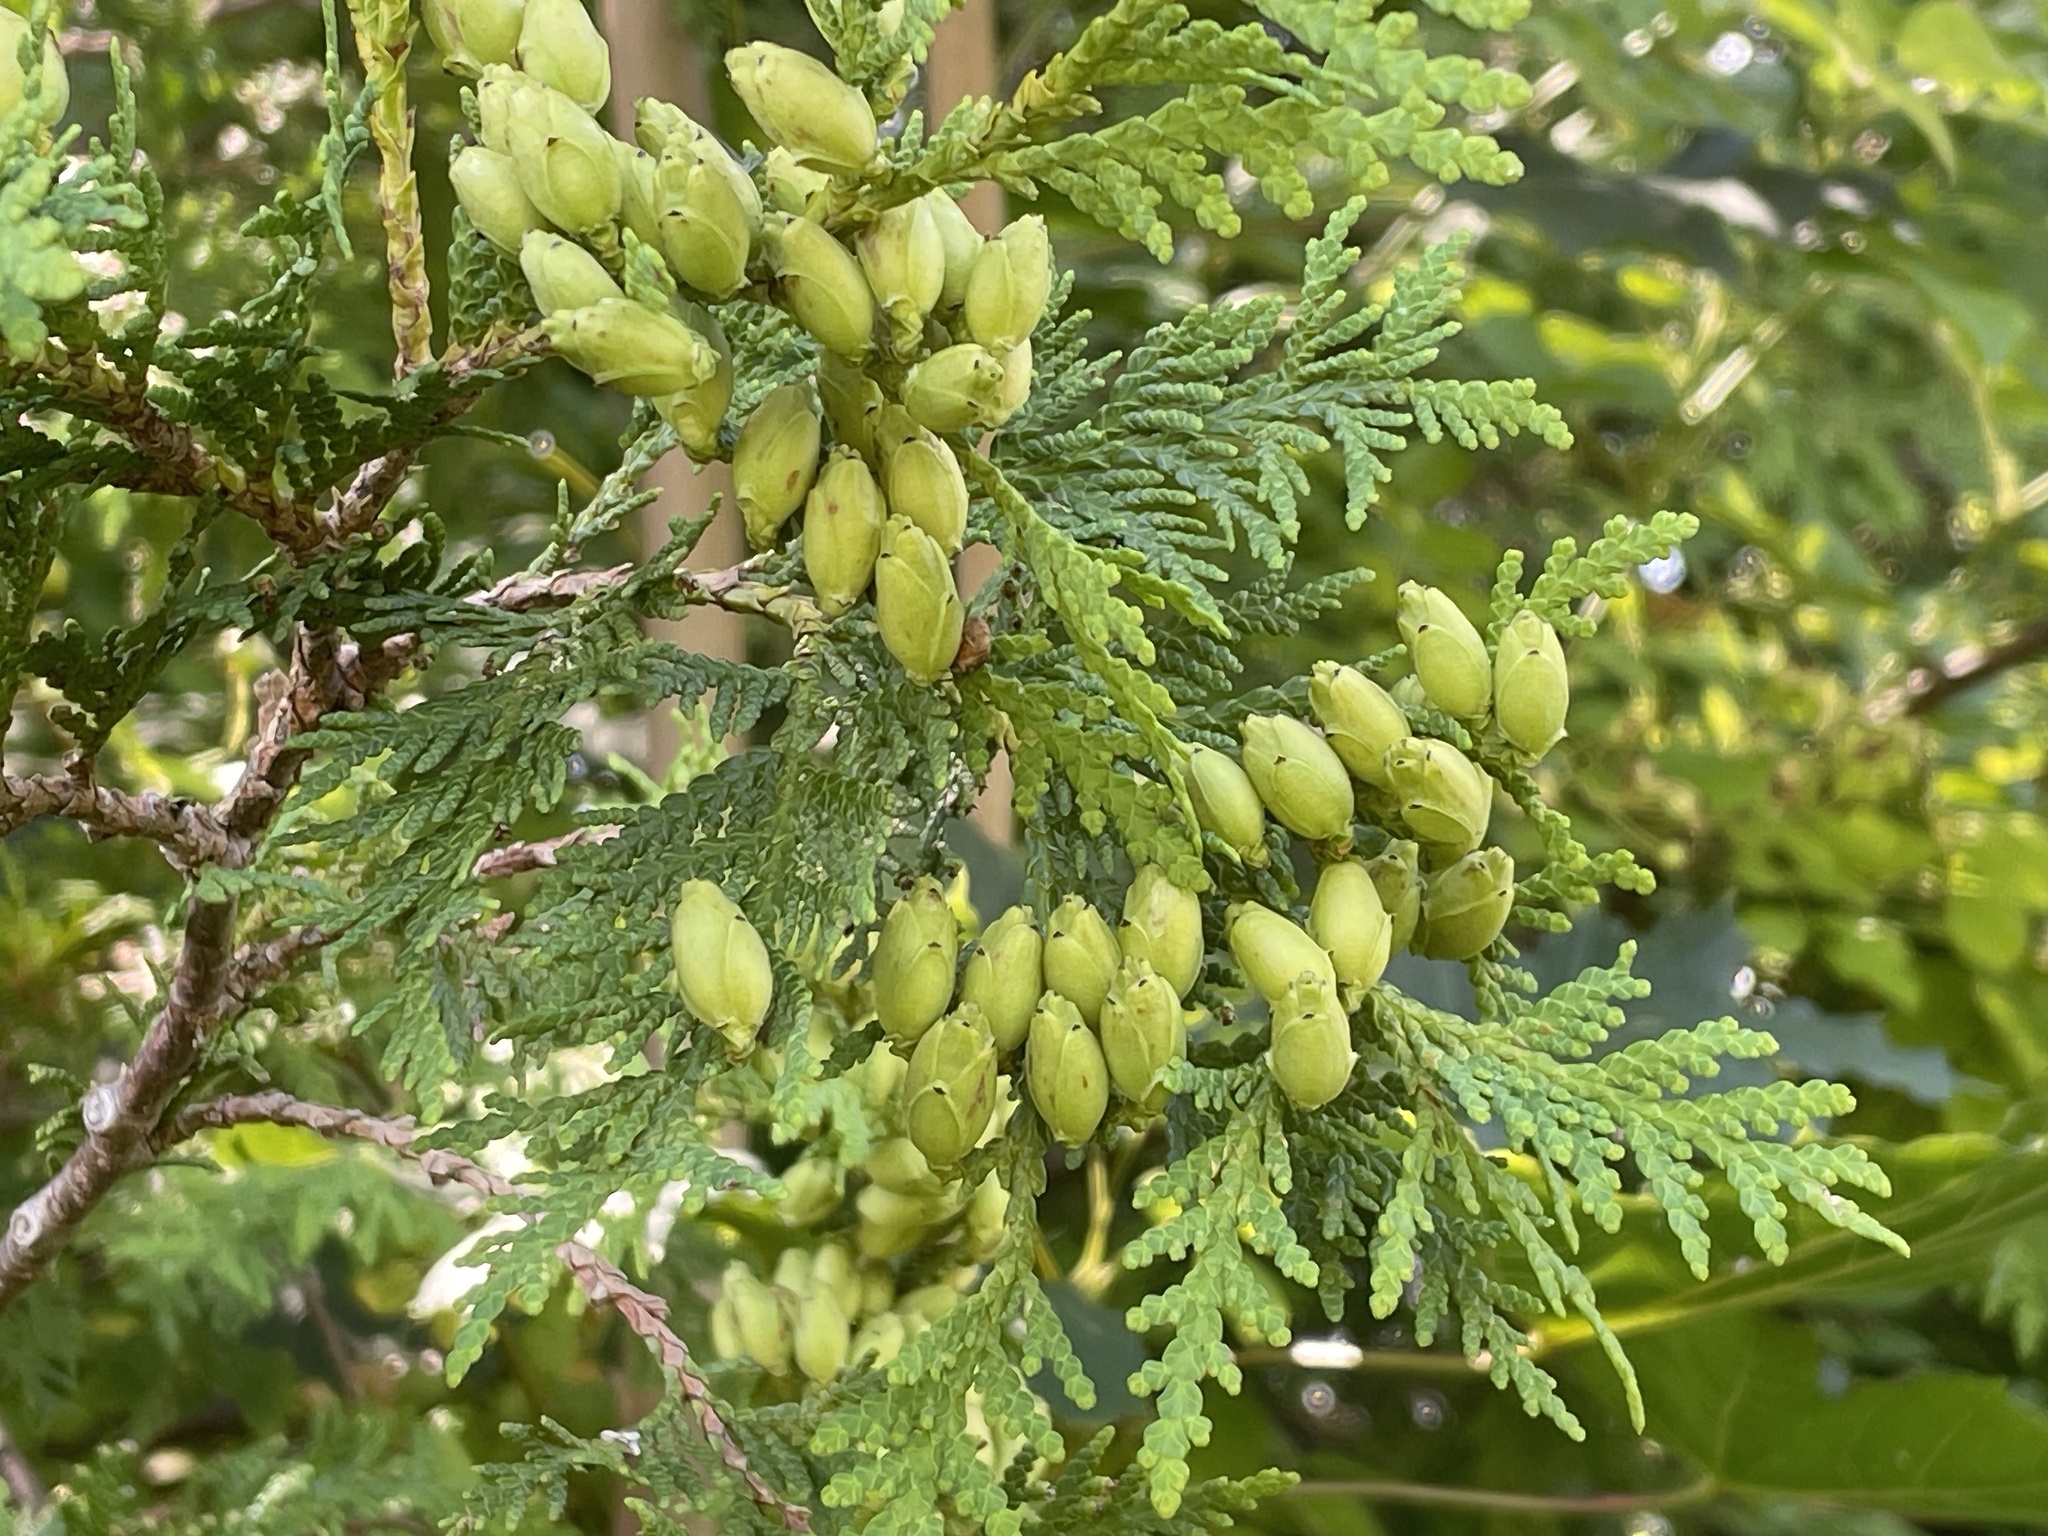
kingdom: Plantae
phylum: Tracheophyta
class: Pinopsida
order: Pinales
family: Cupressaceae
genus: Thuja
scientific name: Thuja occidentalis
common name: Northern white-cedar
